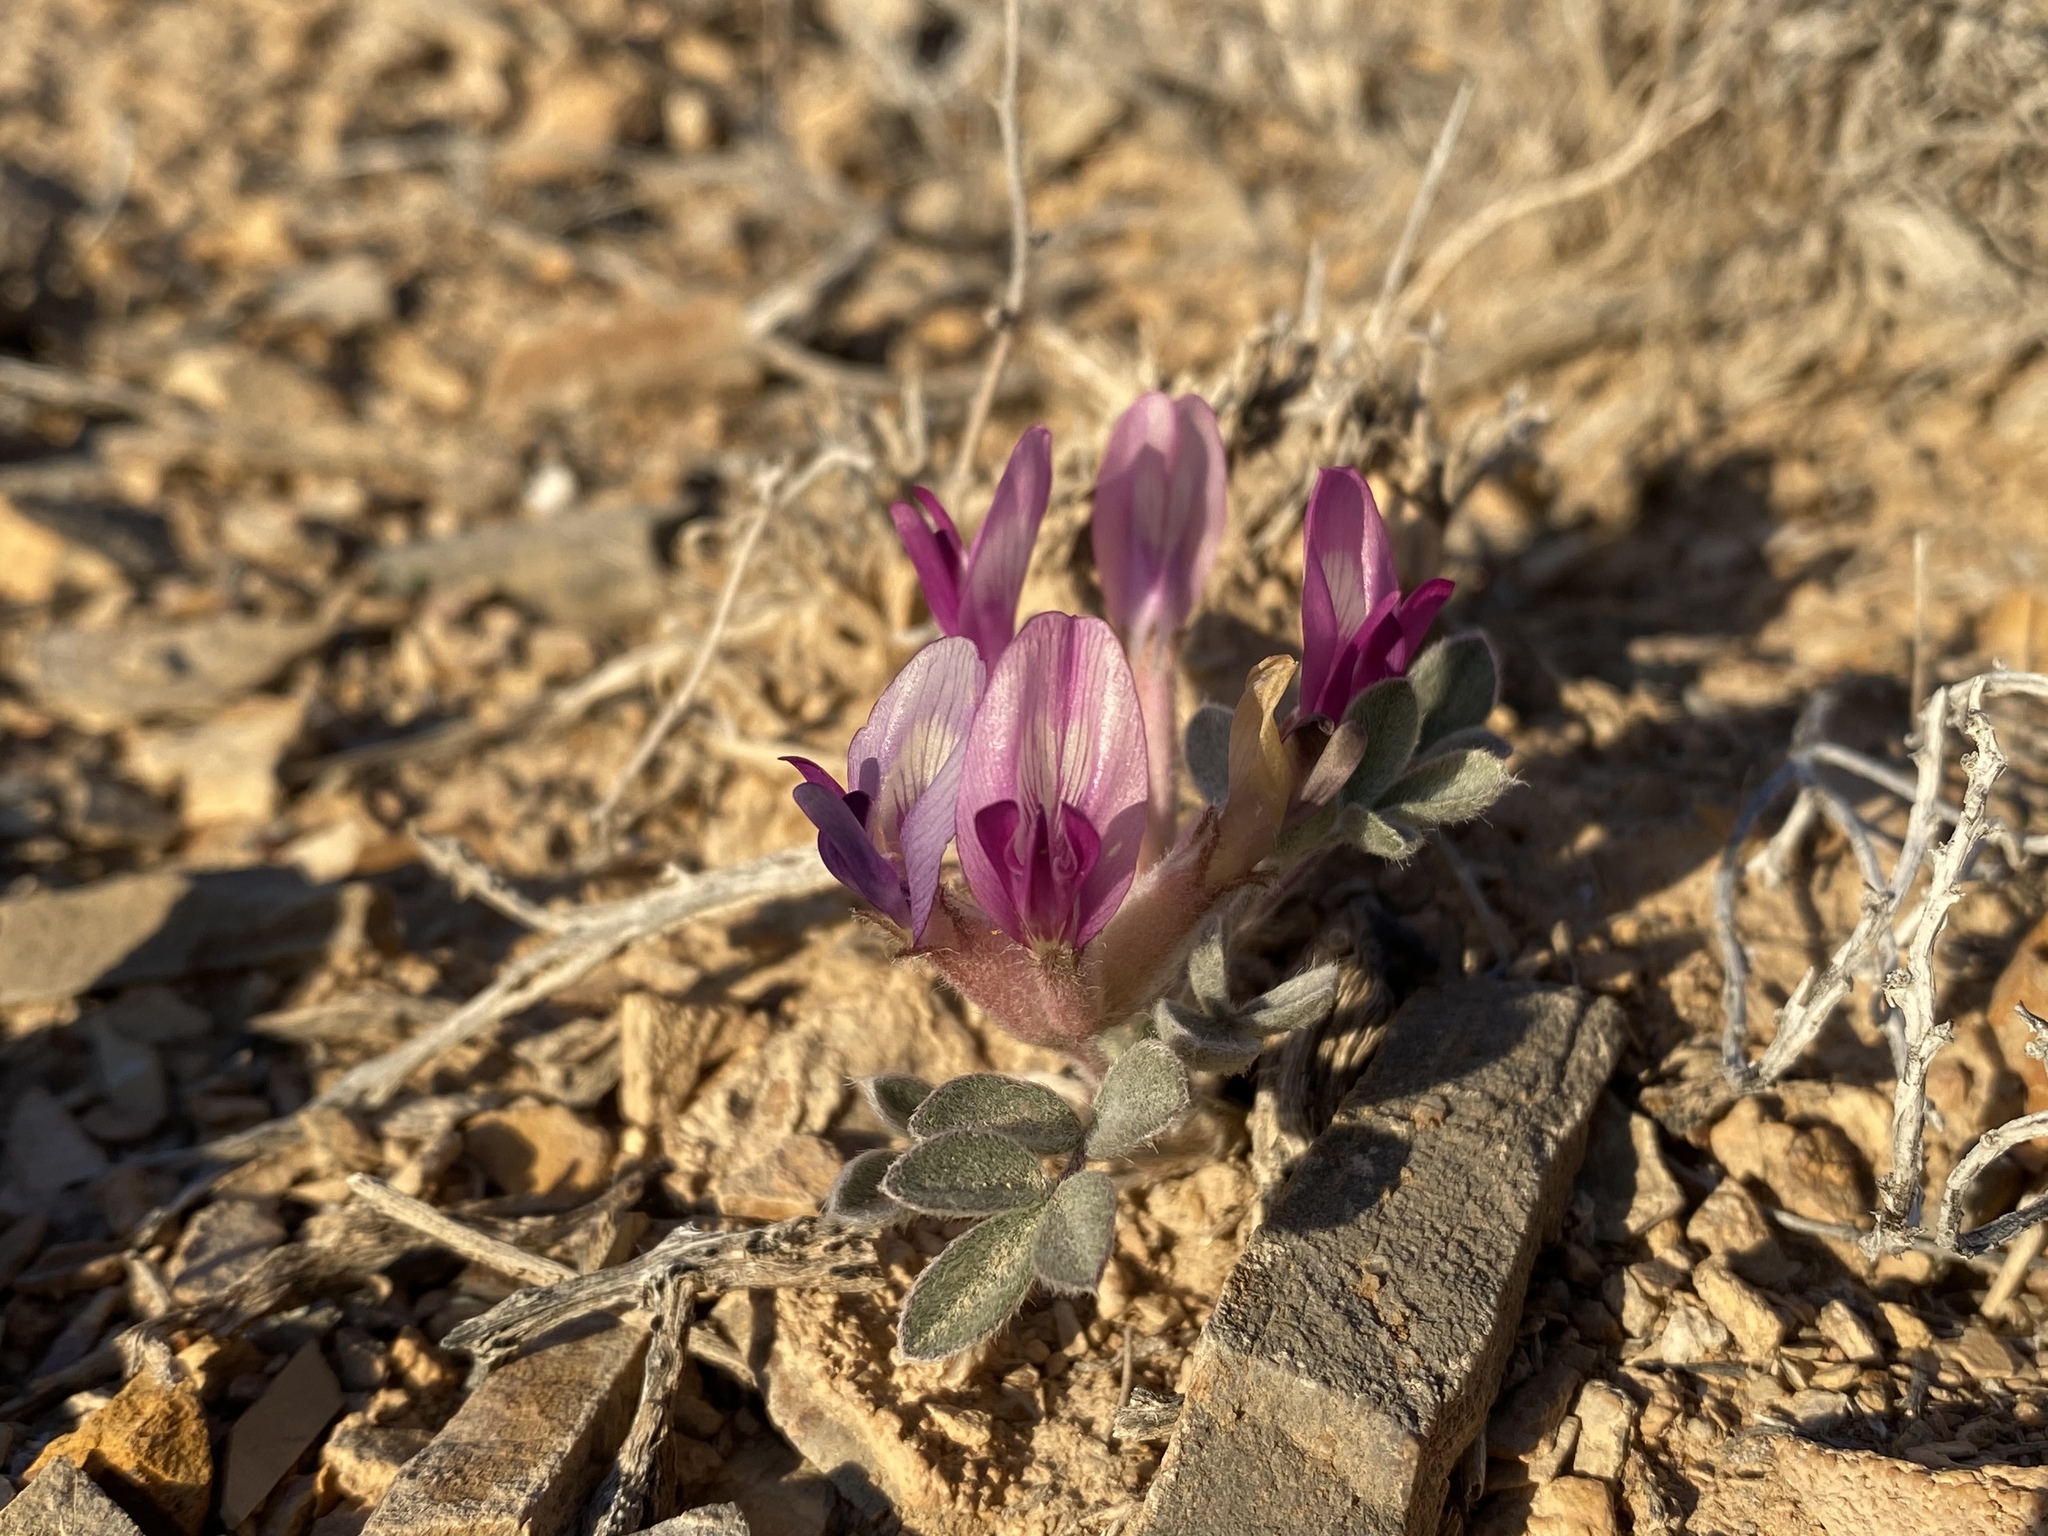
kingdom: Plantae
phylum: Tracheophyta
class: Magnoliopsida
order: Fabales
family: Fabaceae
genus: Astragalus
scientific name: Astragalus newberryi
